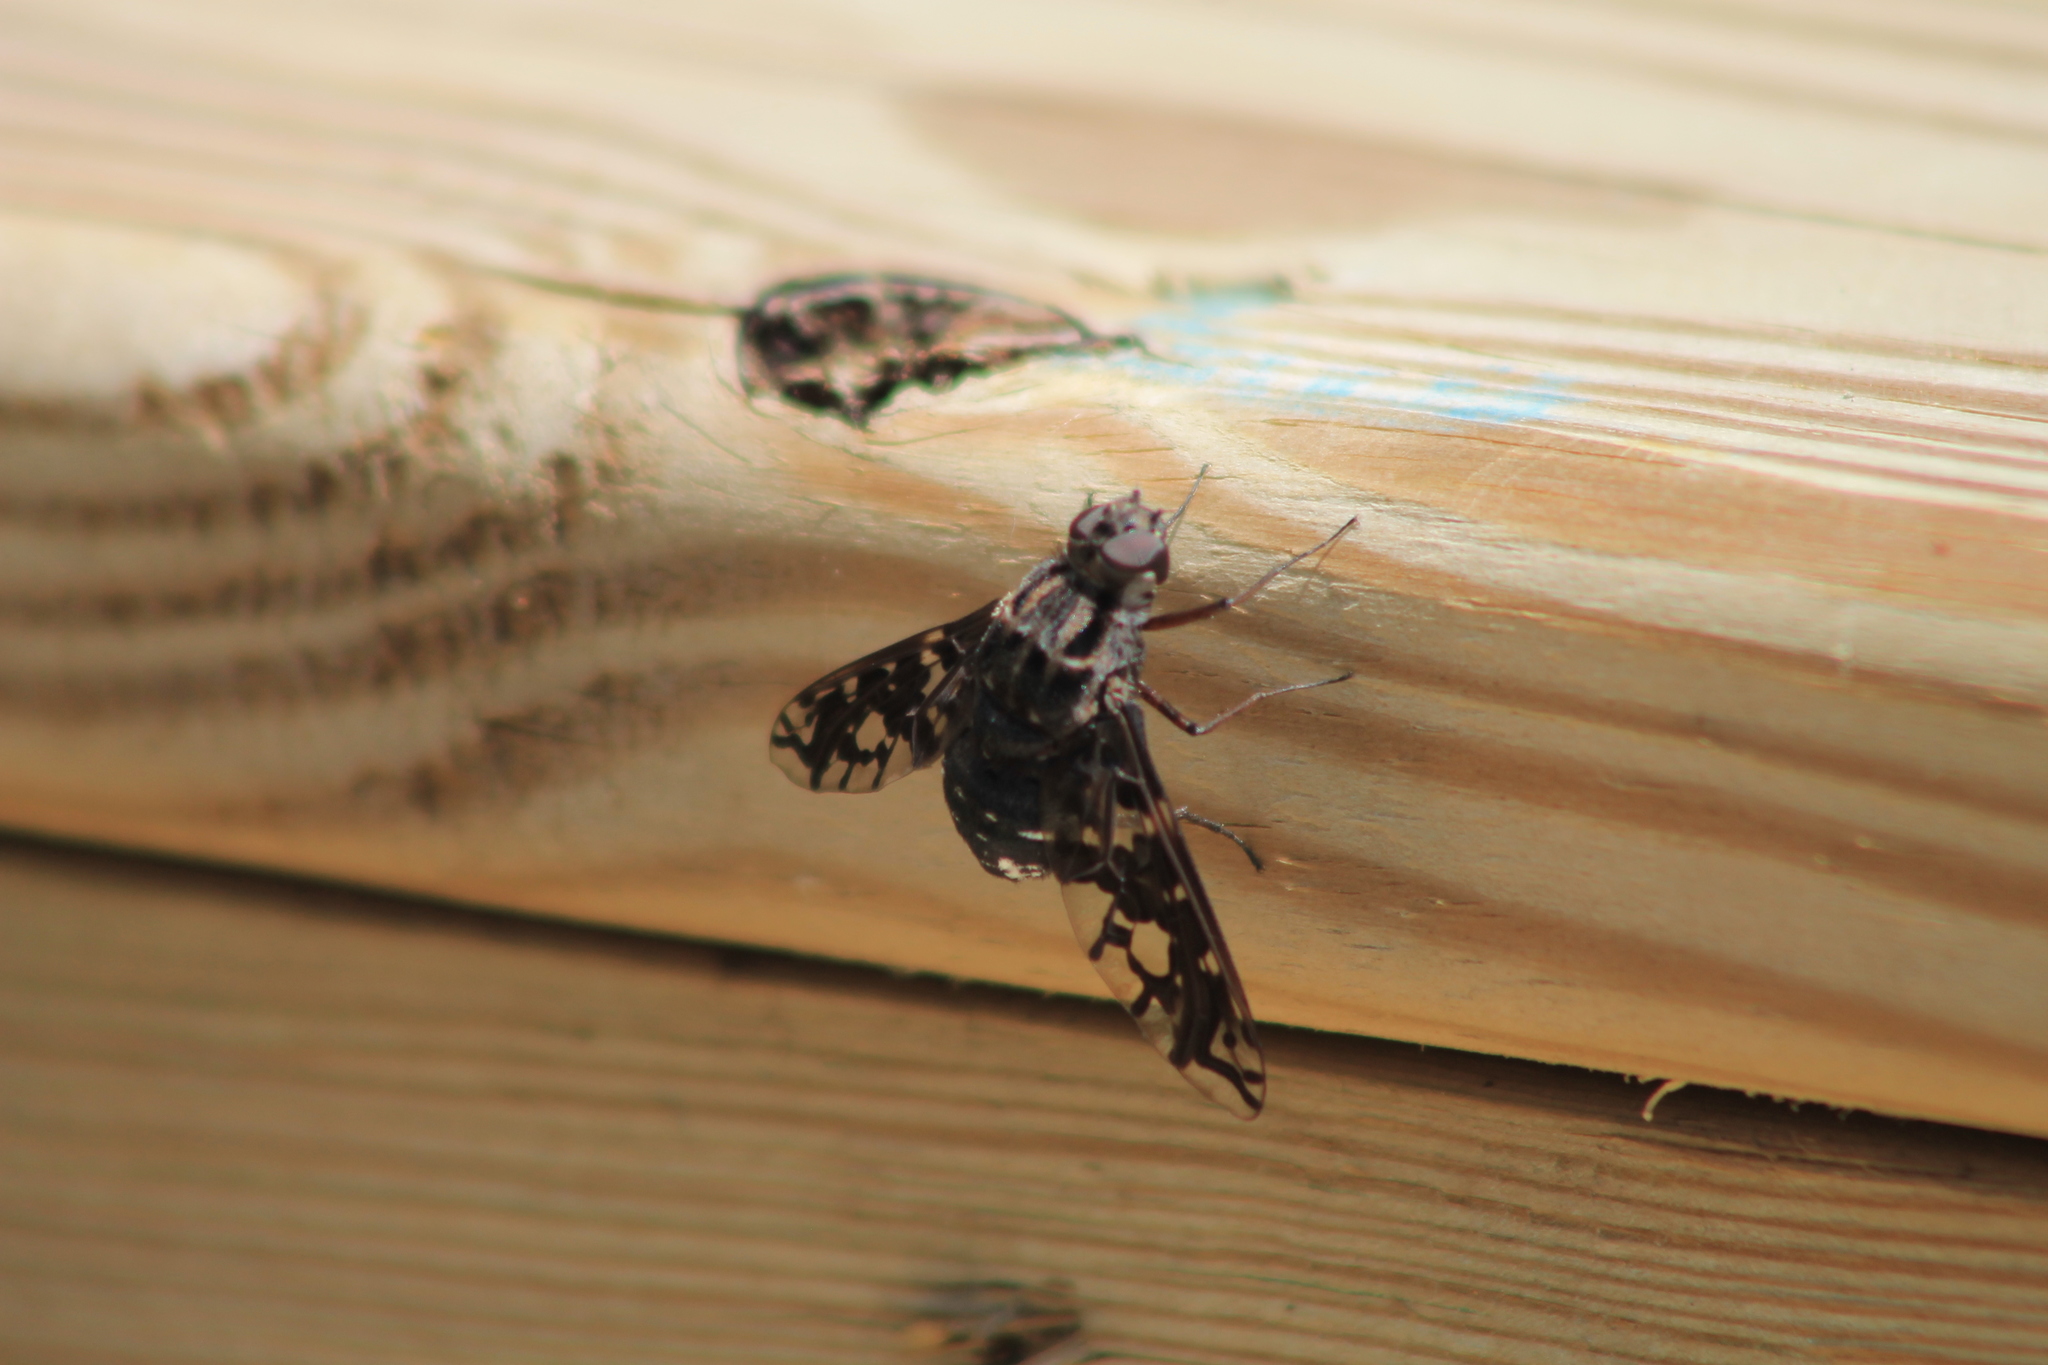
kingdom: Animalia
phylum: Arthropoda
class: Insecta
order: Diptera
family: Bombyliidae
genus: Xenox
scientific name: Xenox tigrinus
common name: Tiger bee fly
